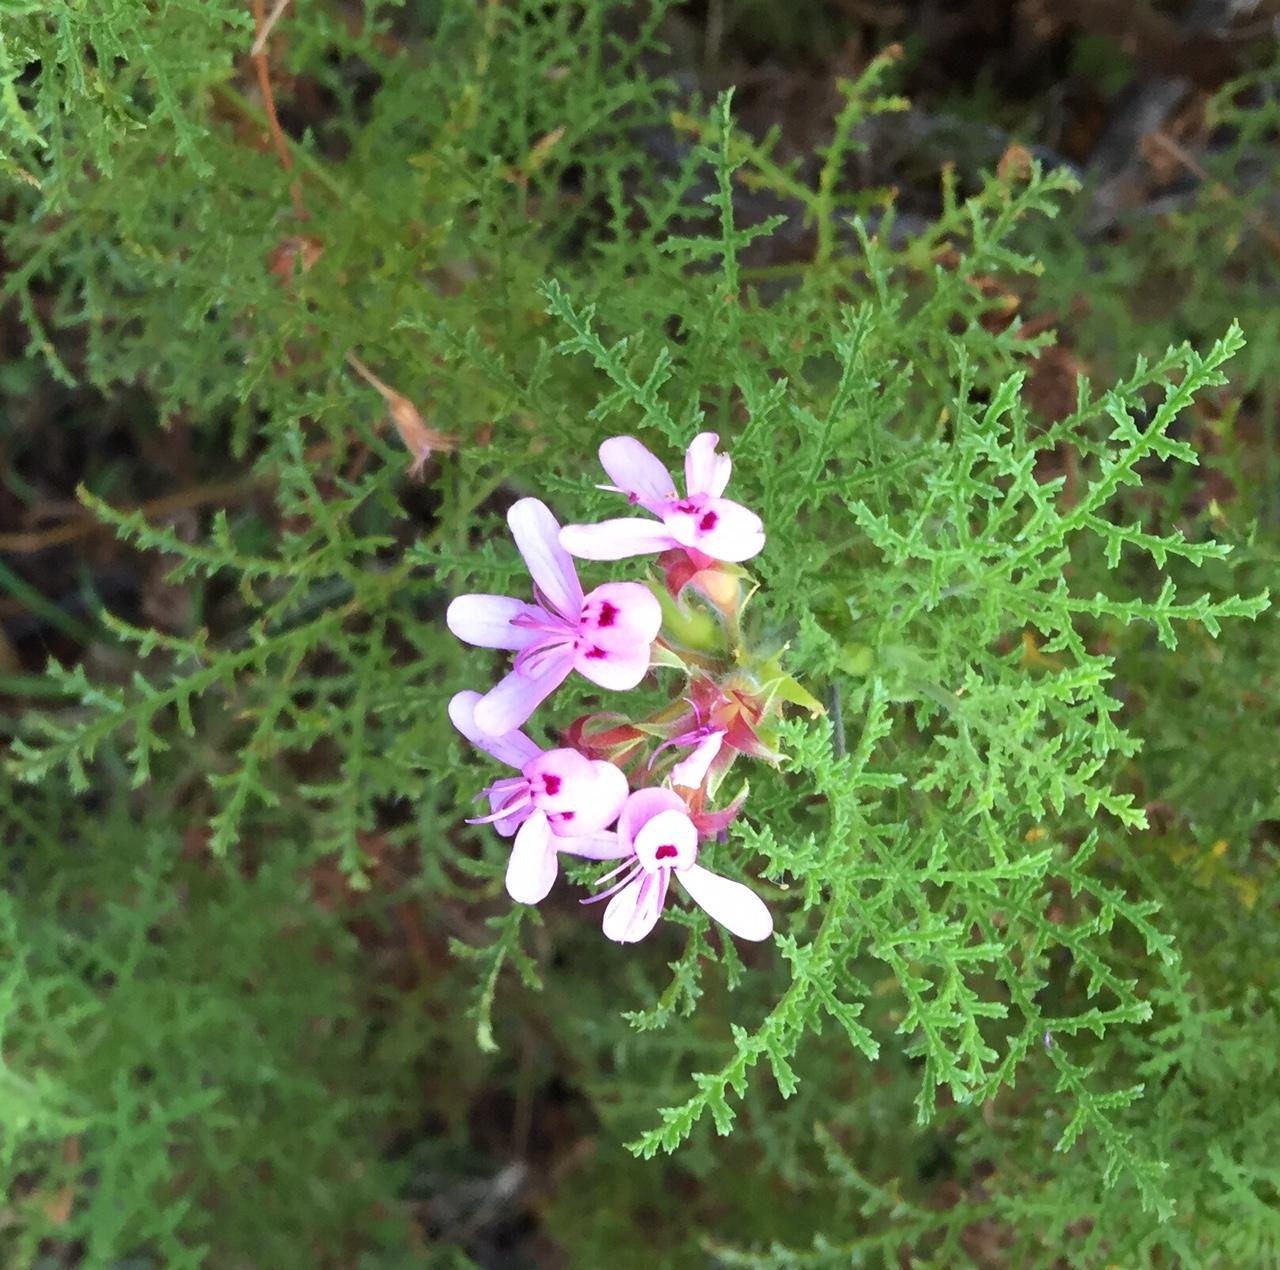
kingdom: Plantae
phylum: Tracheophyta
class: Magnoliopsida
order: Geraniales
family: Geraniaceae
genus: Pelargonium
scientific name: Pelargonium denticulatum
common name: Pine geranium
